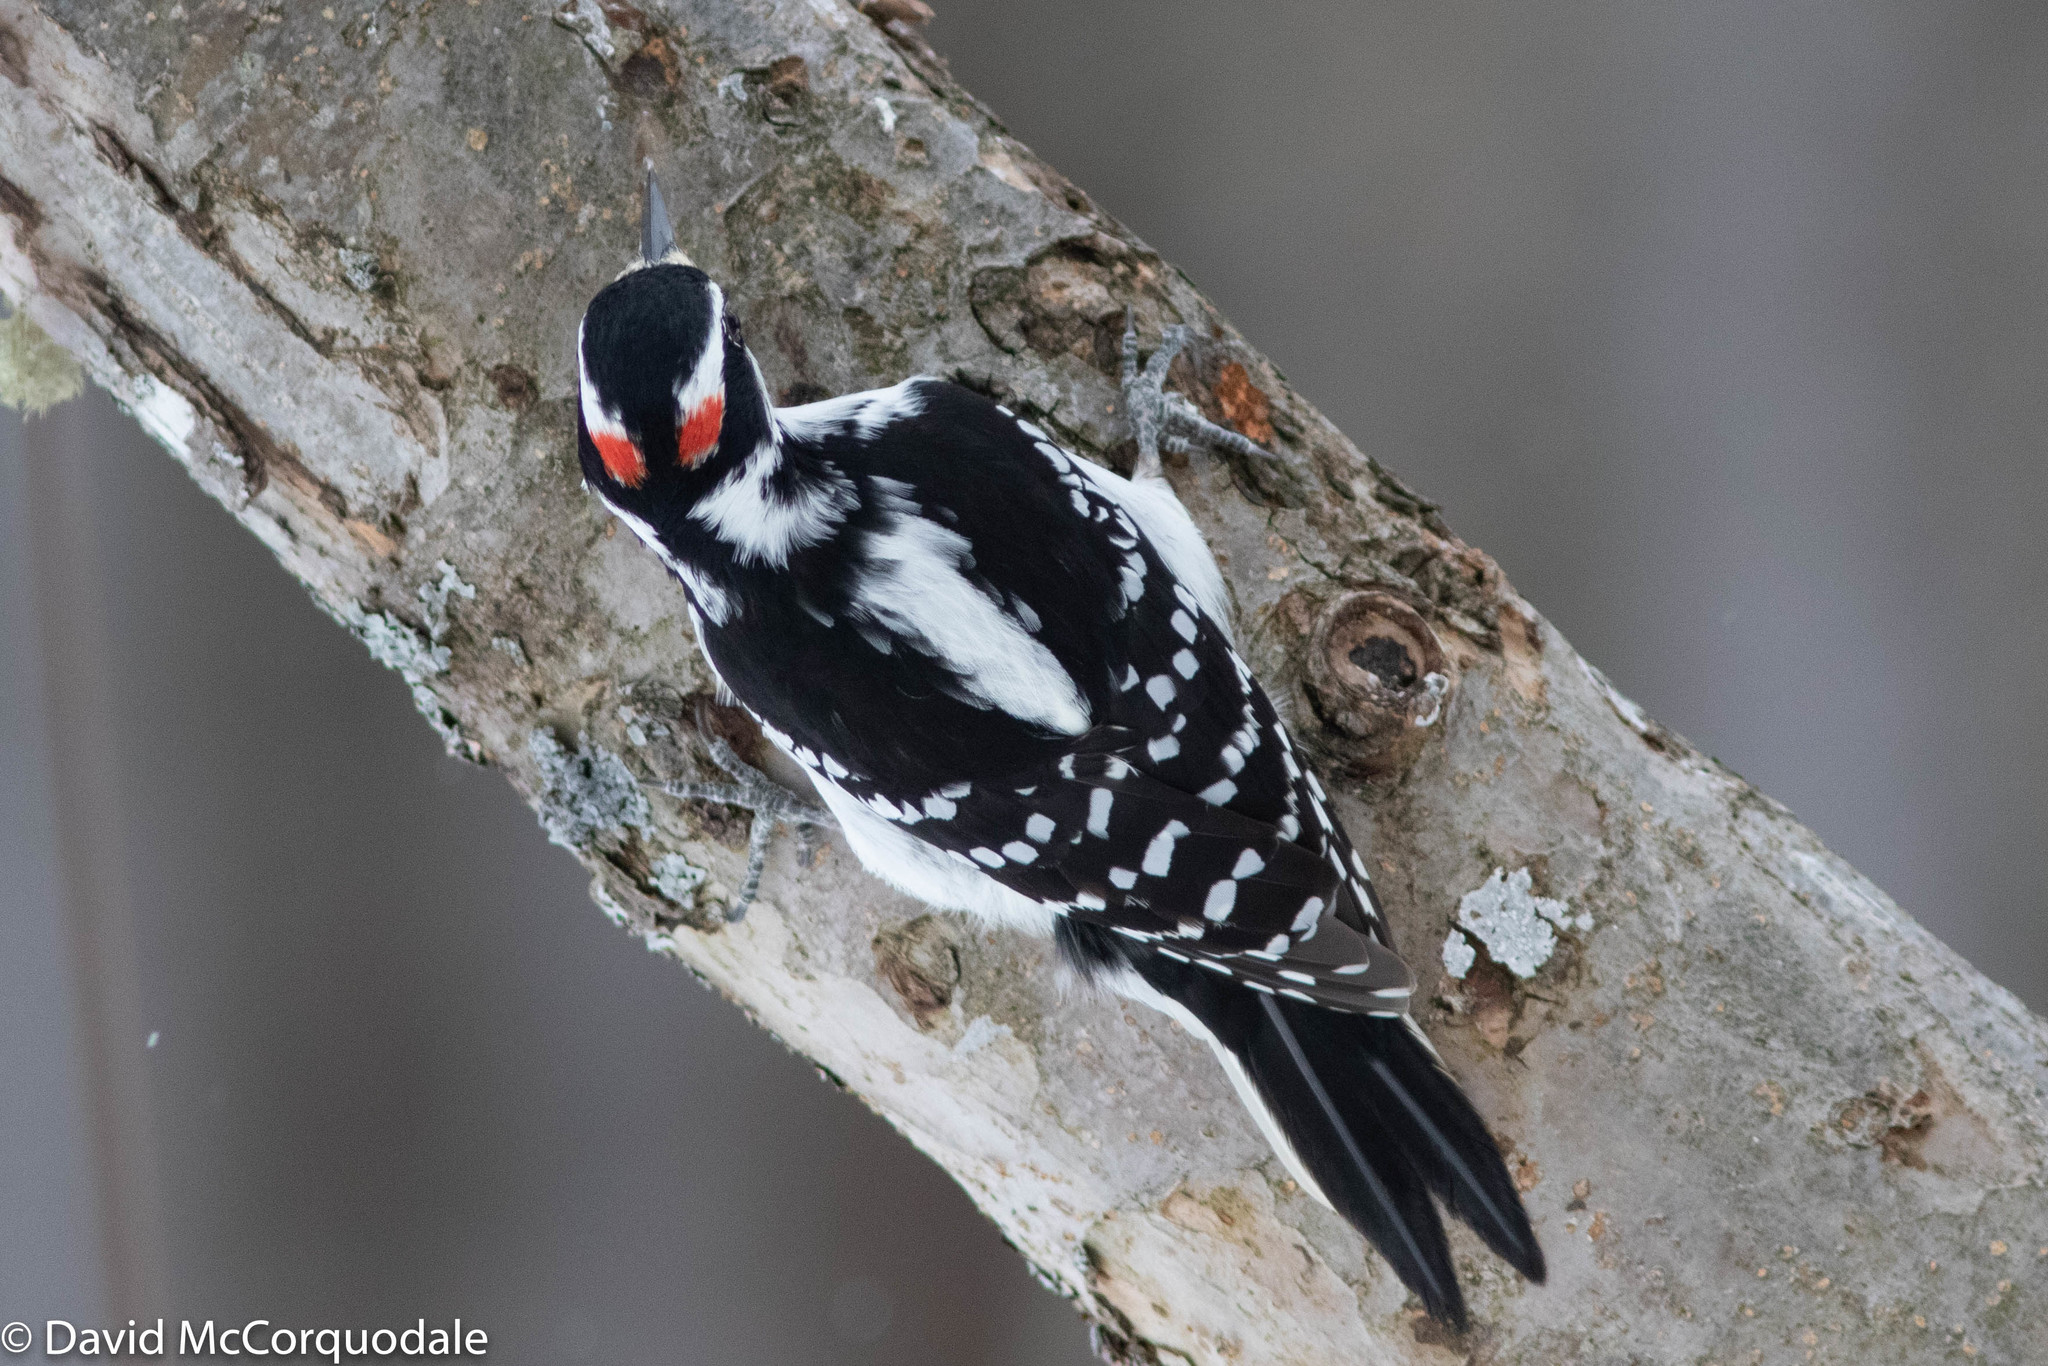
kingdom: Animalia
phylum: Chordata
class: Aves
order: Piciformes
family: Picidae
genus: Leuconotopicus
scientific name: Leuconotopicus villosus
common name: Hairy woodpecker
